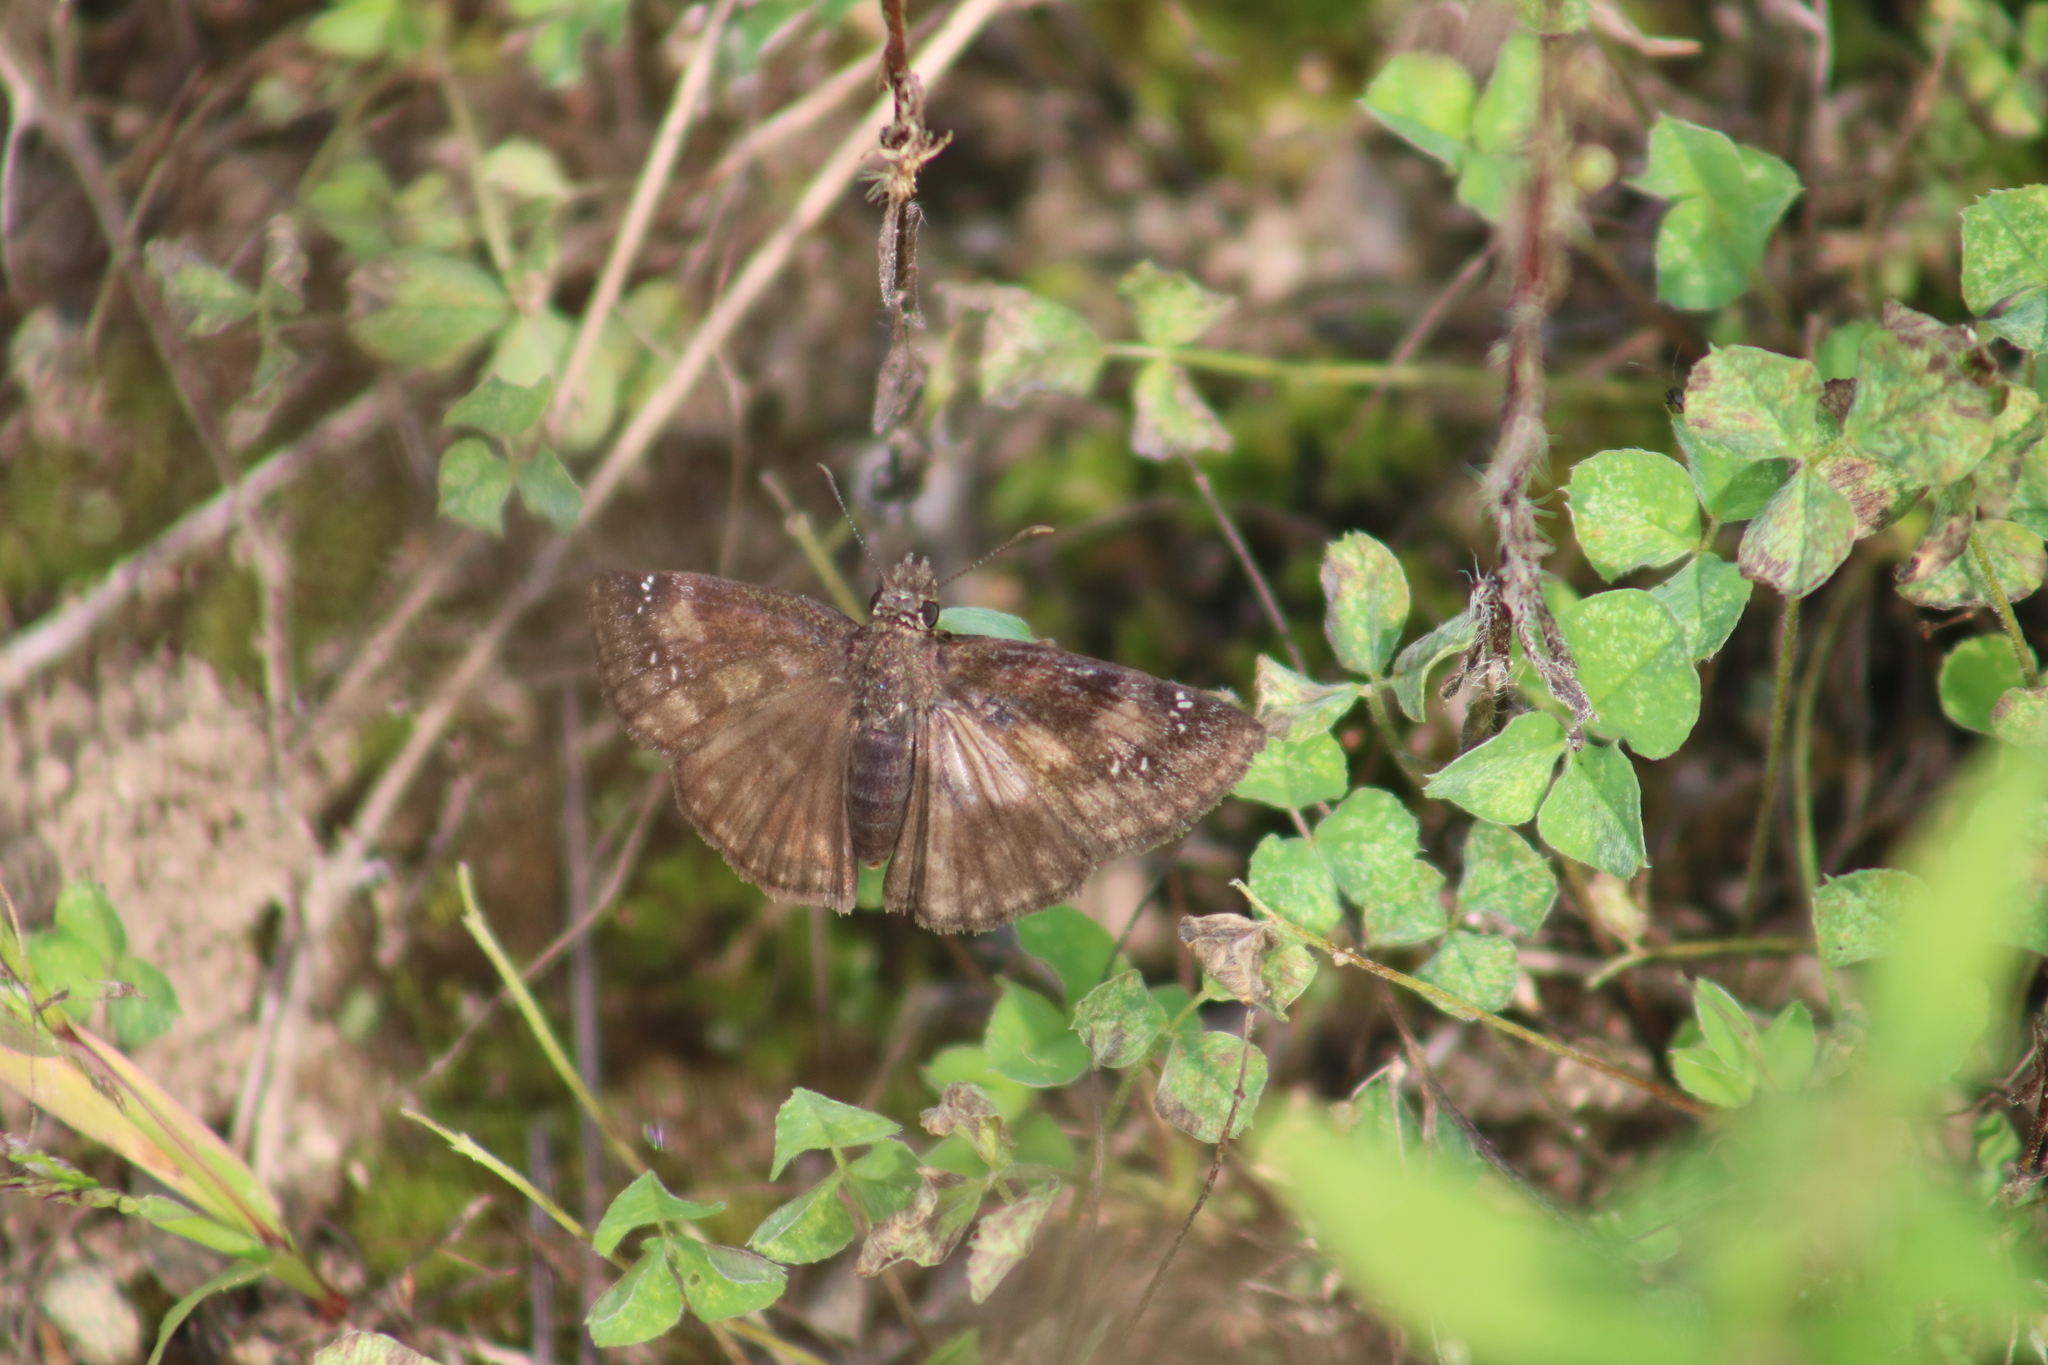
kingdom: Animalia
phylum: Arthropoda
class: Insecta
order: Lepidoptera
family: Hesperiidae
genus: Erynnis
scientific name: Erynnis baptisiae
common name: Wild indigo duskywing
